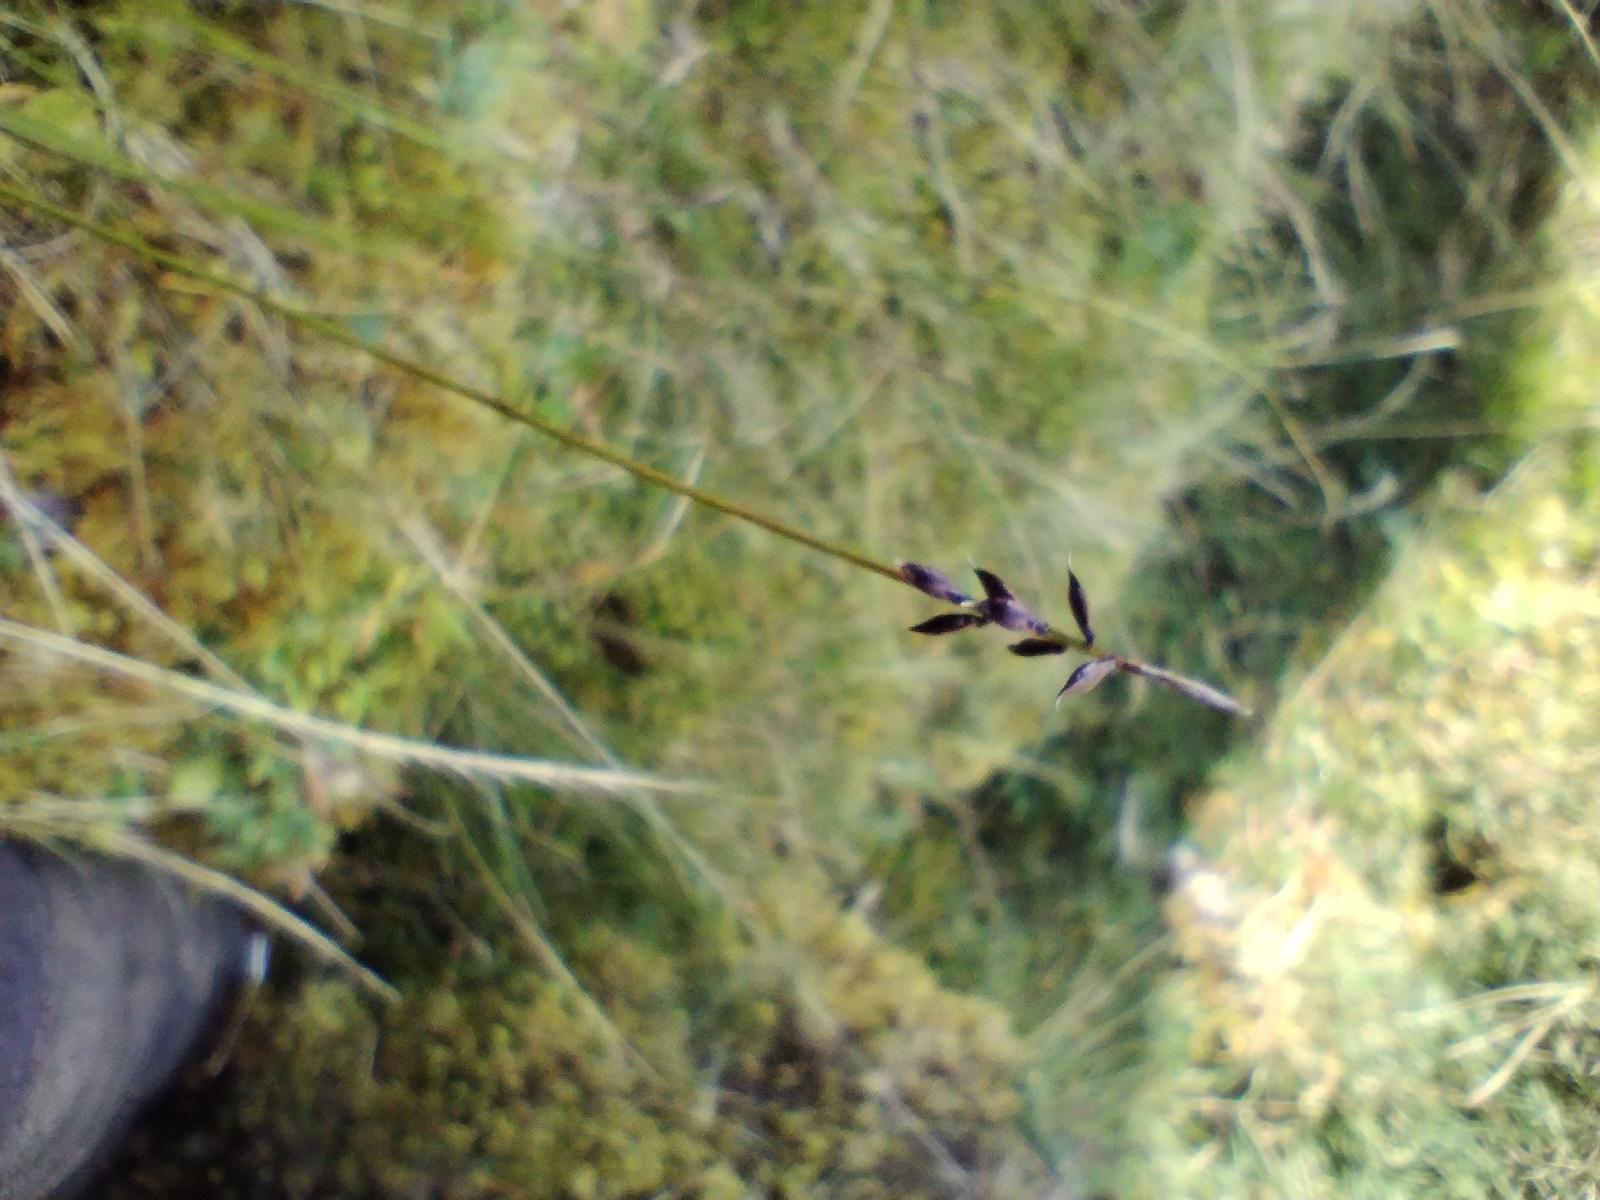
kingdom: Plantae
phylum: Tracheophyta
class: Liliopsida
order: Poales
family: Cyperaceae
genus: Carex
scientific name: Carex pulicaris
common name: Flea sedge
